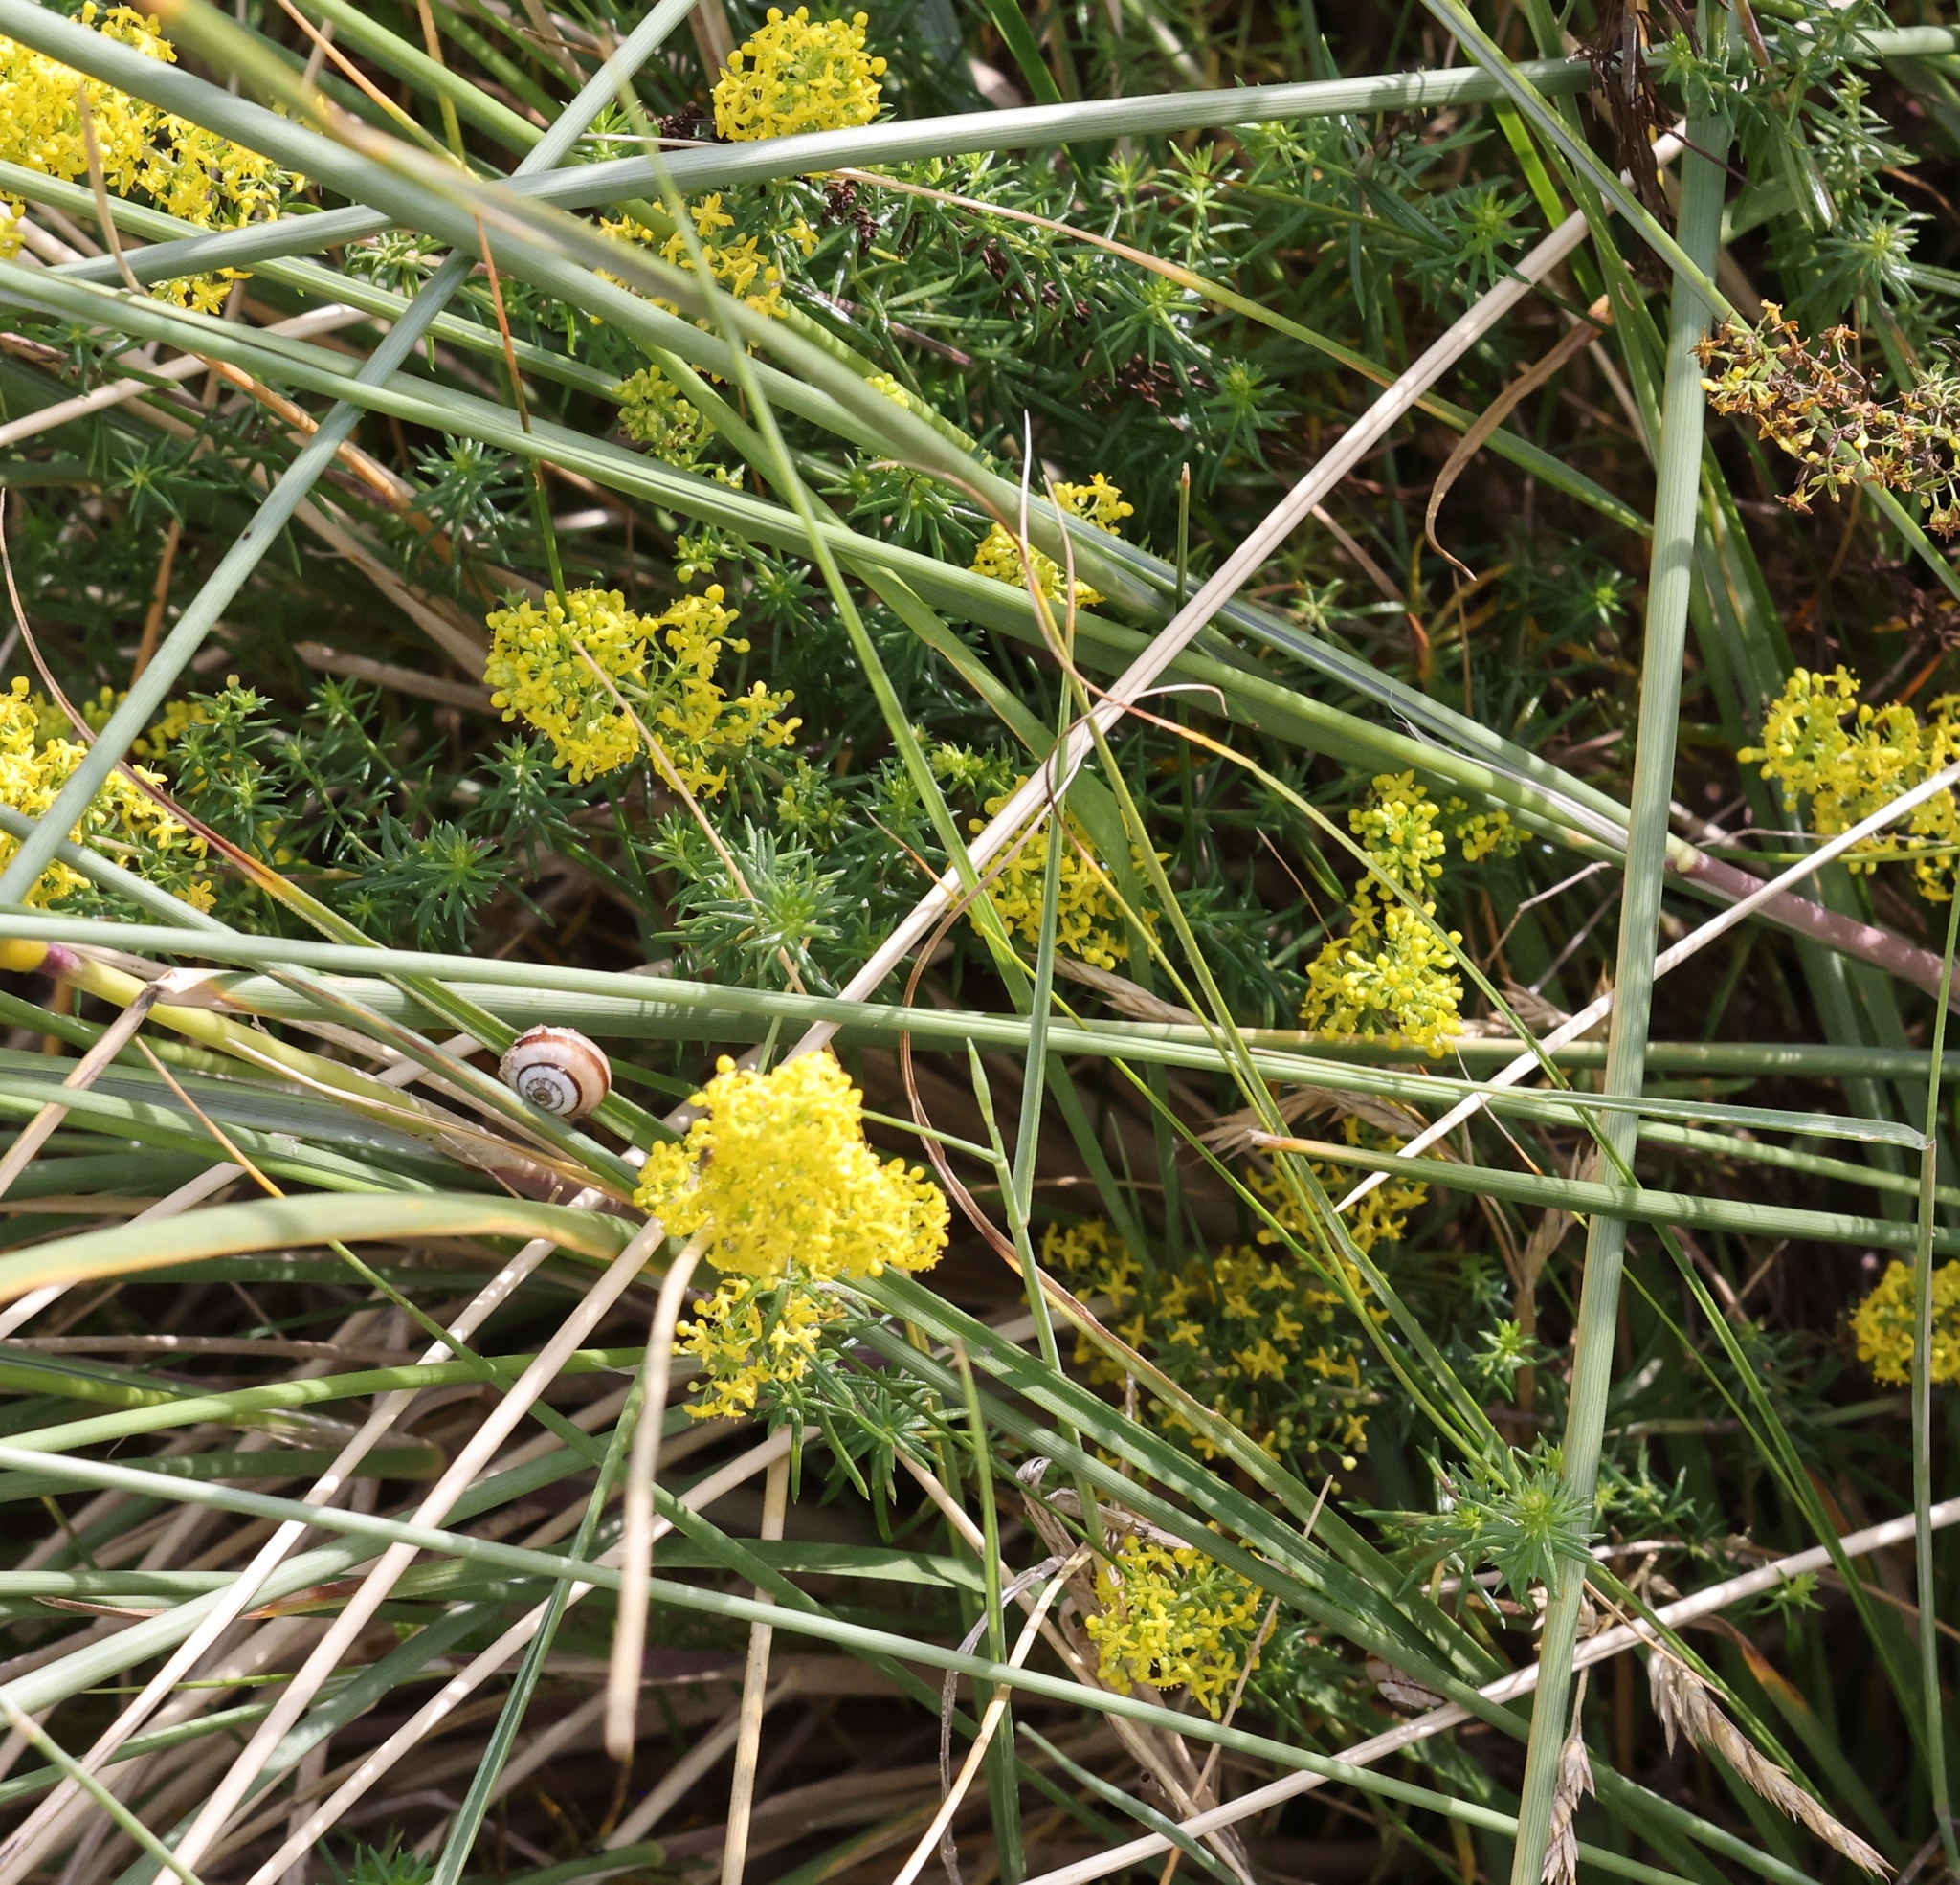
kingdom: Plantae
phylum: Tracheophyta
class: Magnoliopsida
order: Gentianales
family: Rubiaceae
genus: Galium
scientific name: Galium verum
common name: Lady's bedstraw
